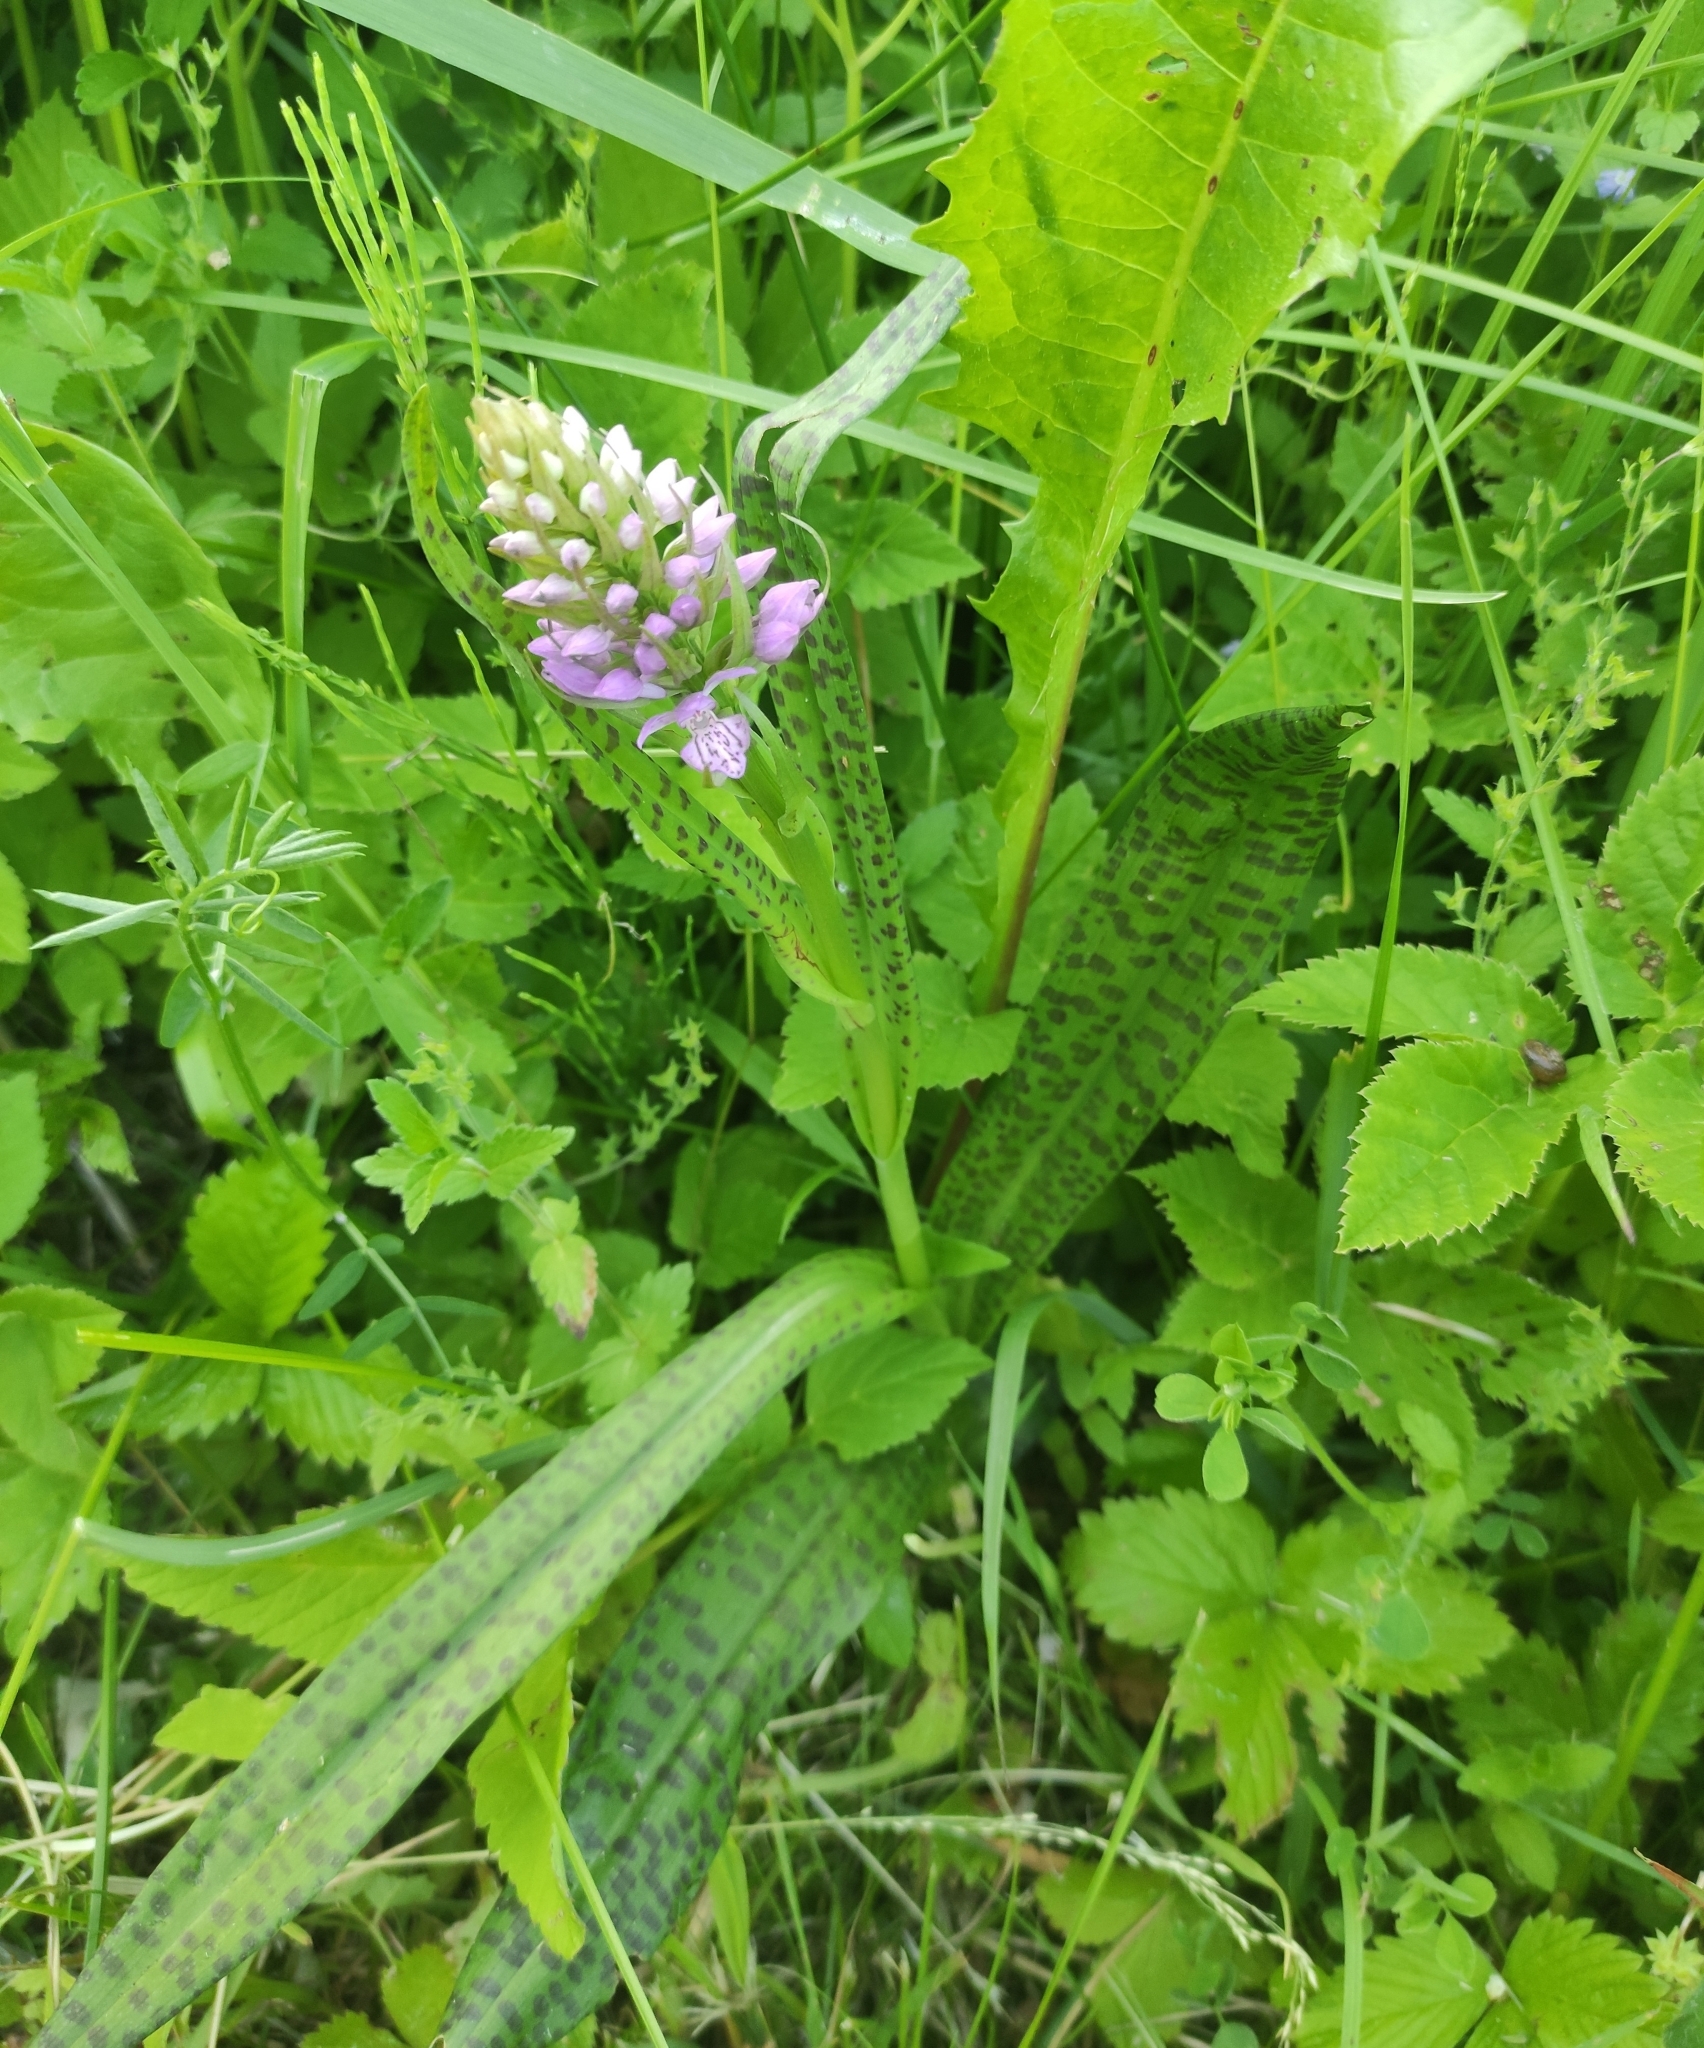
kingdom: Plantae
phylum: Tracheophyta
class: Liliopsida
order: Asparagales
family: Orchidaceae
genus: Dactylorhiza
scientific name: Dactylorhiza majalis
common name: Marsh orchid
